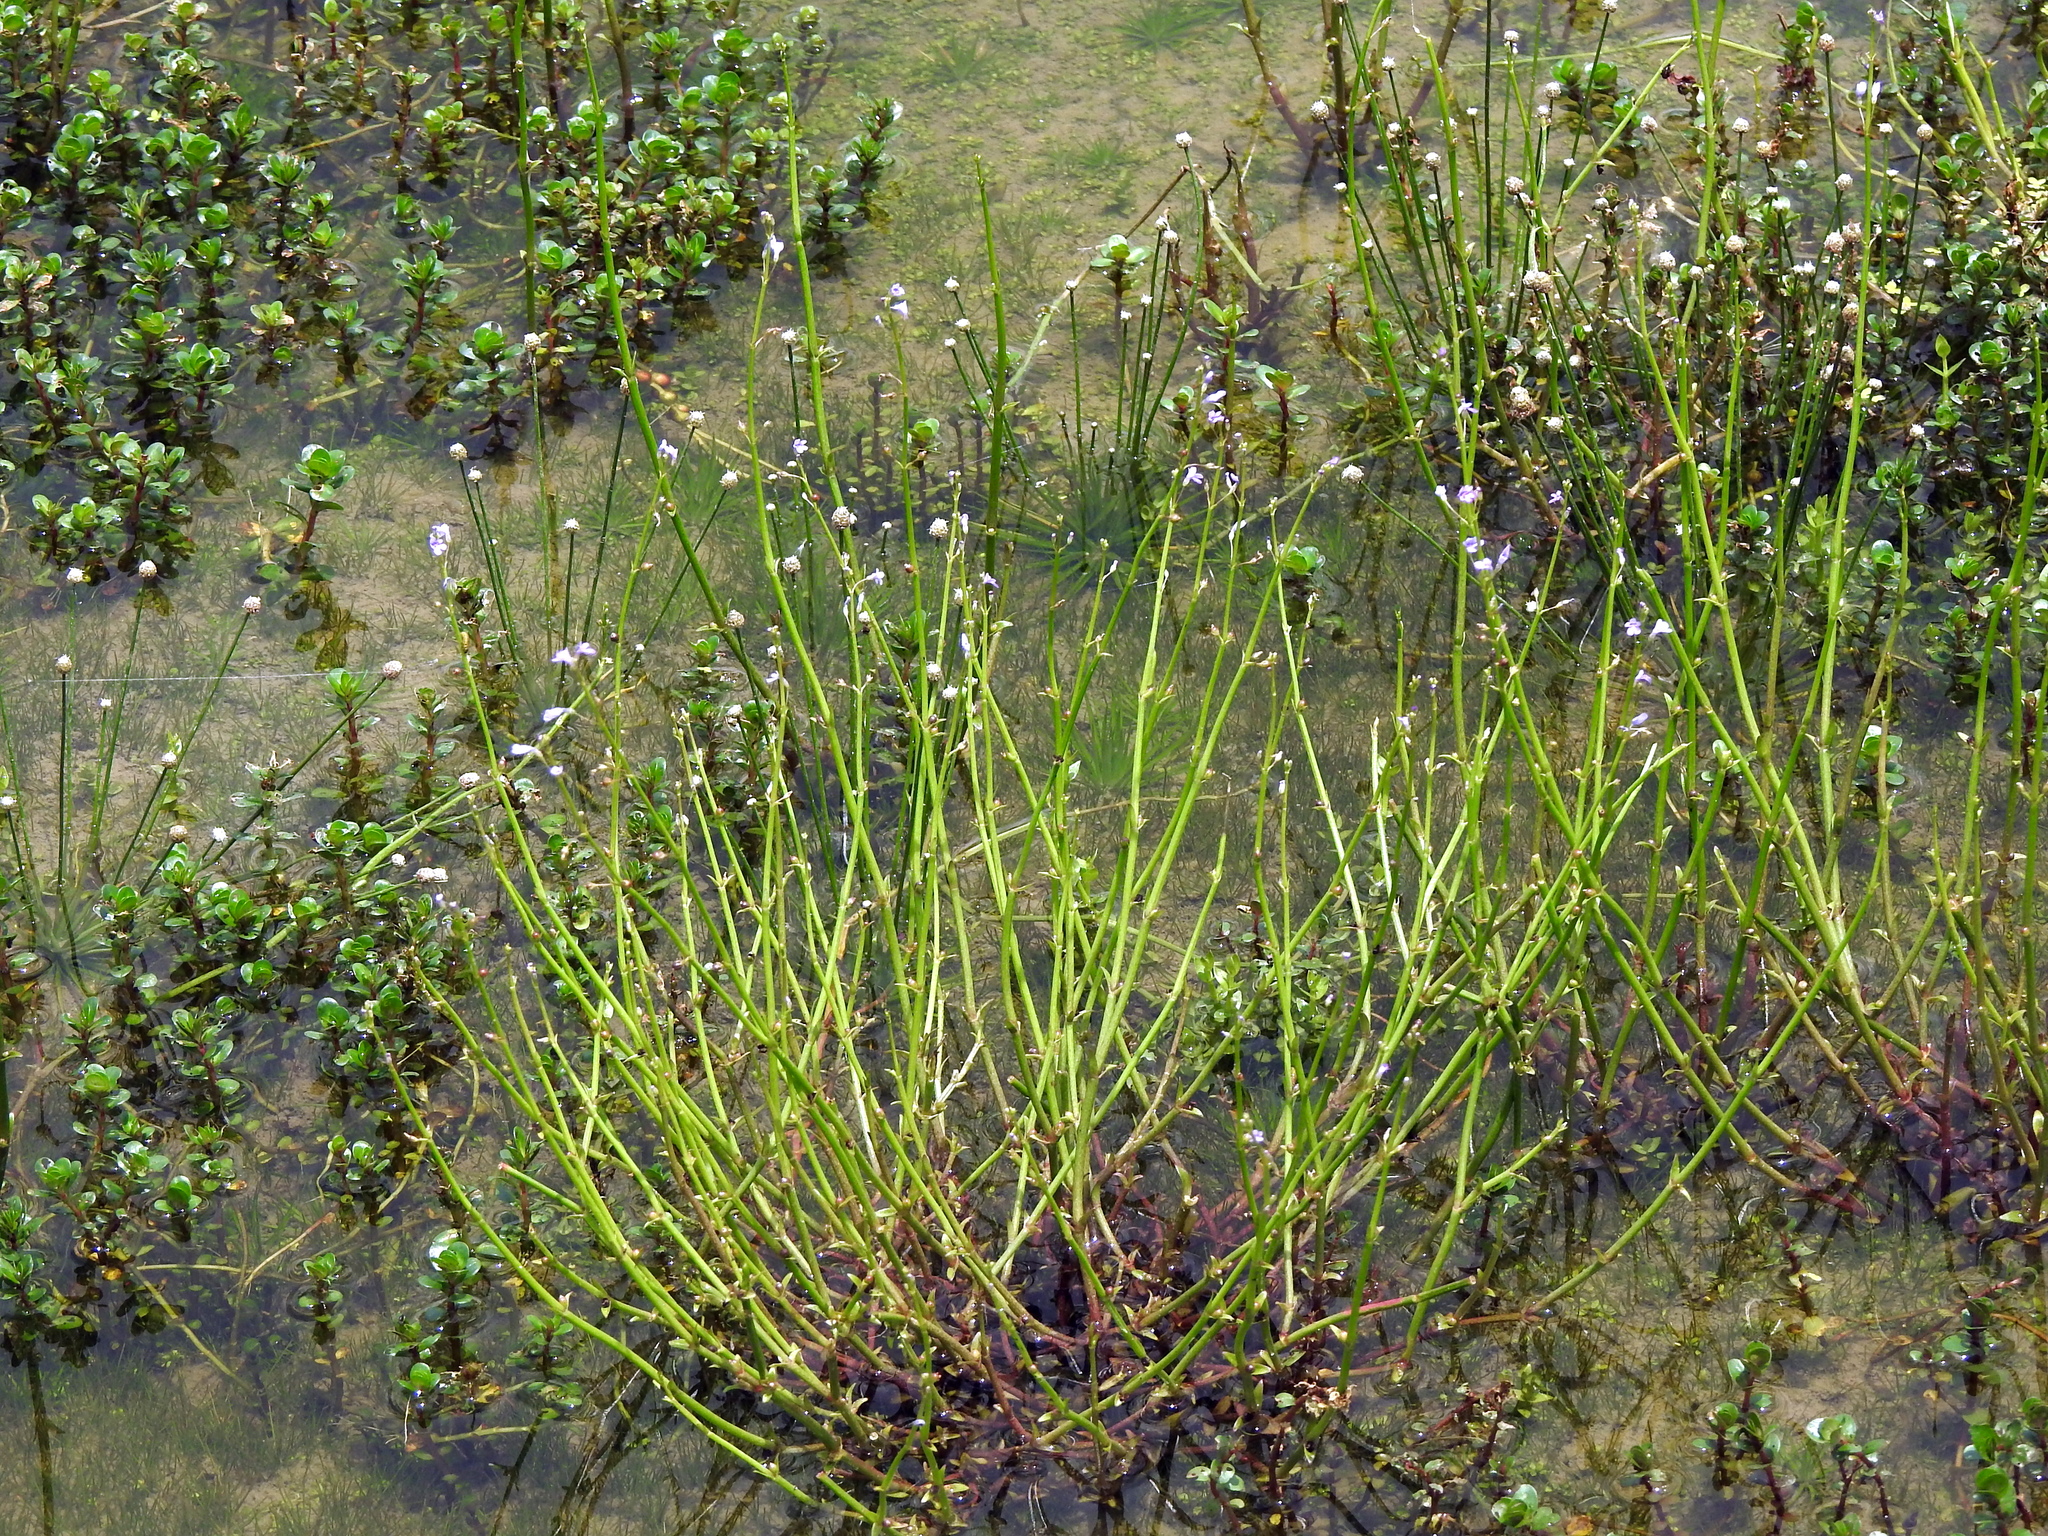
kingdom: Plantae
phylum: Tracheophyta
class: Magnoliopsida
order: Lamiales
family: Plantaginaceae
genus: Dopatrium
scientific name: Dopatrium junceum
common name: Horsefly's eye
